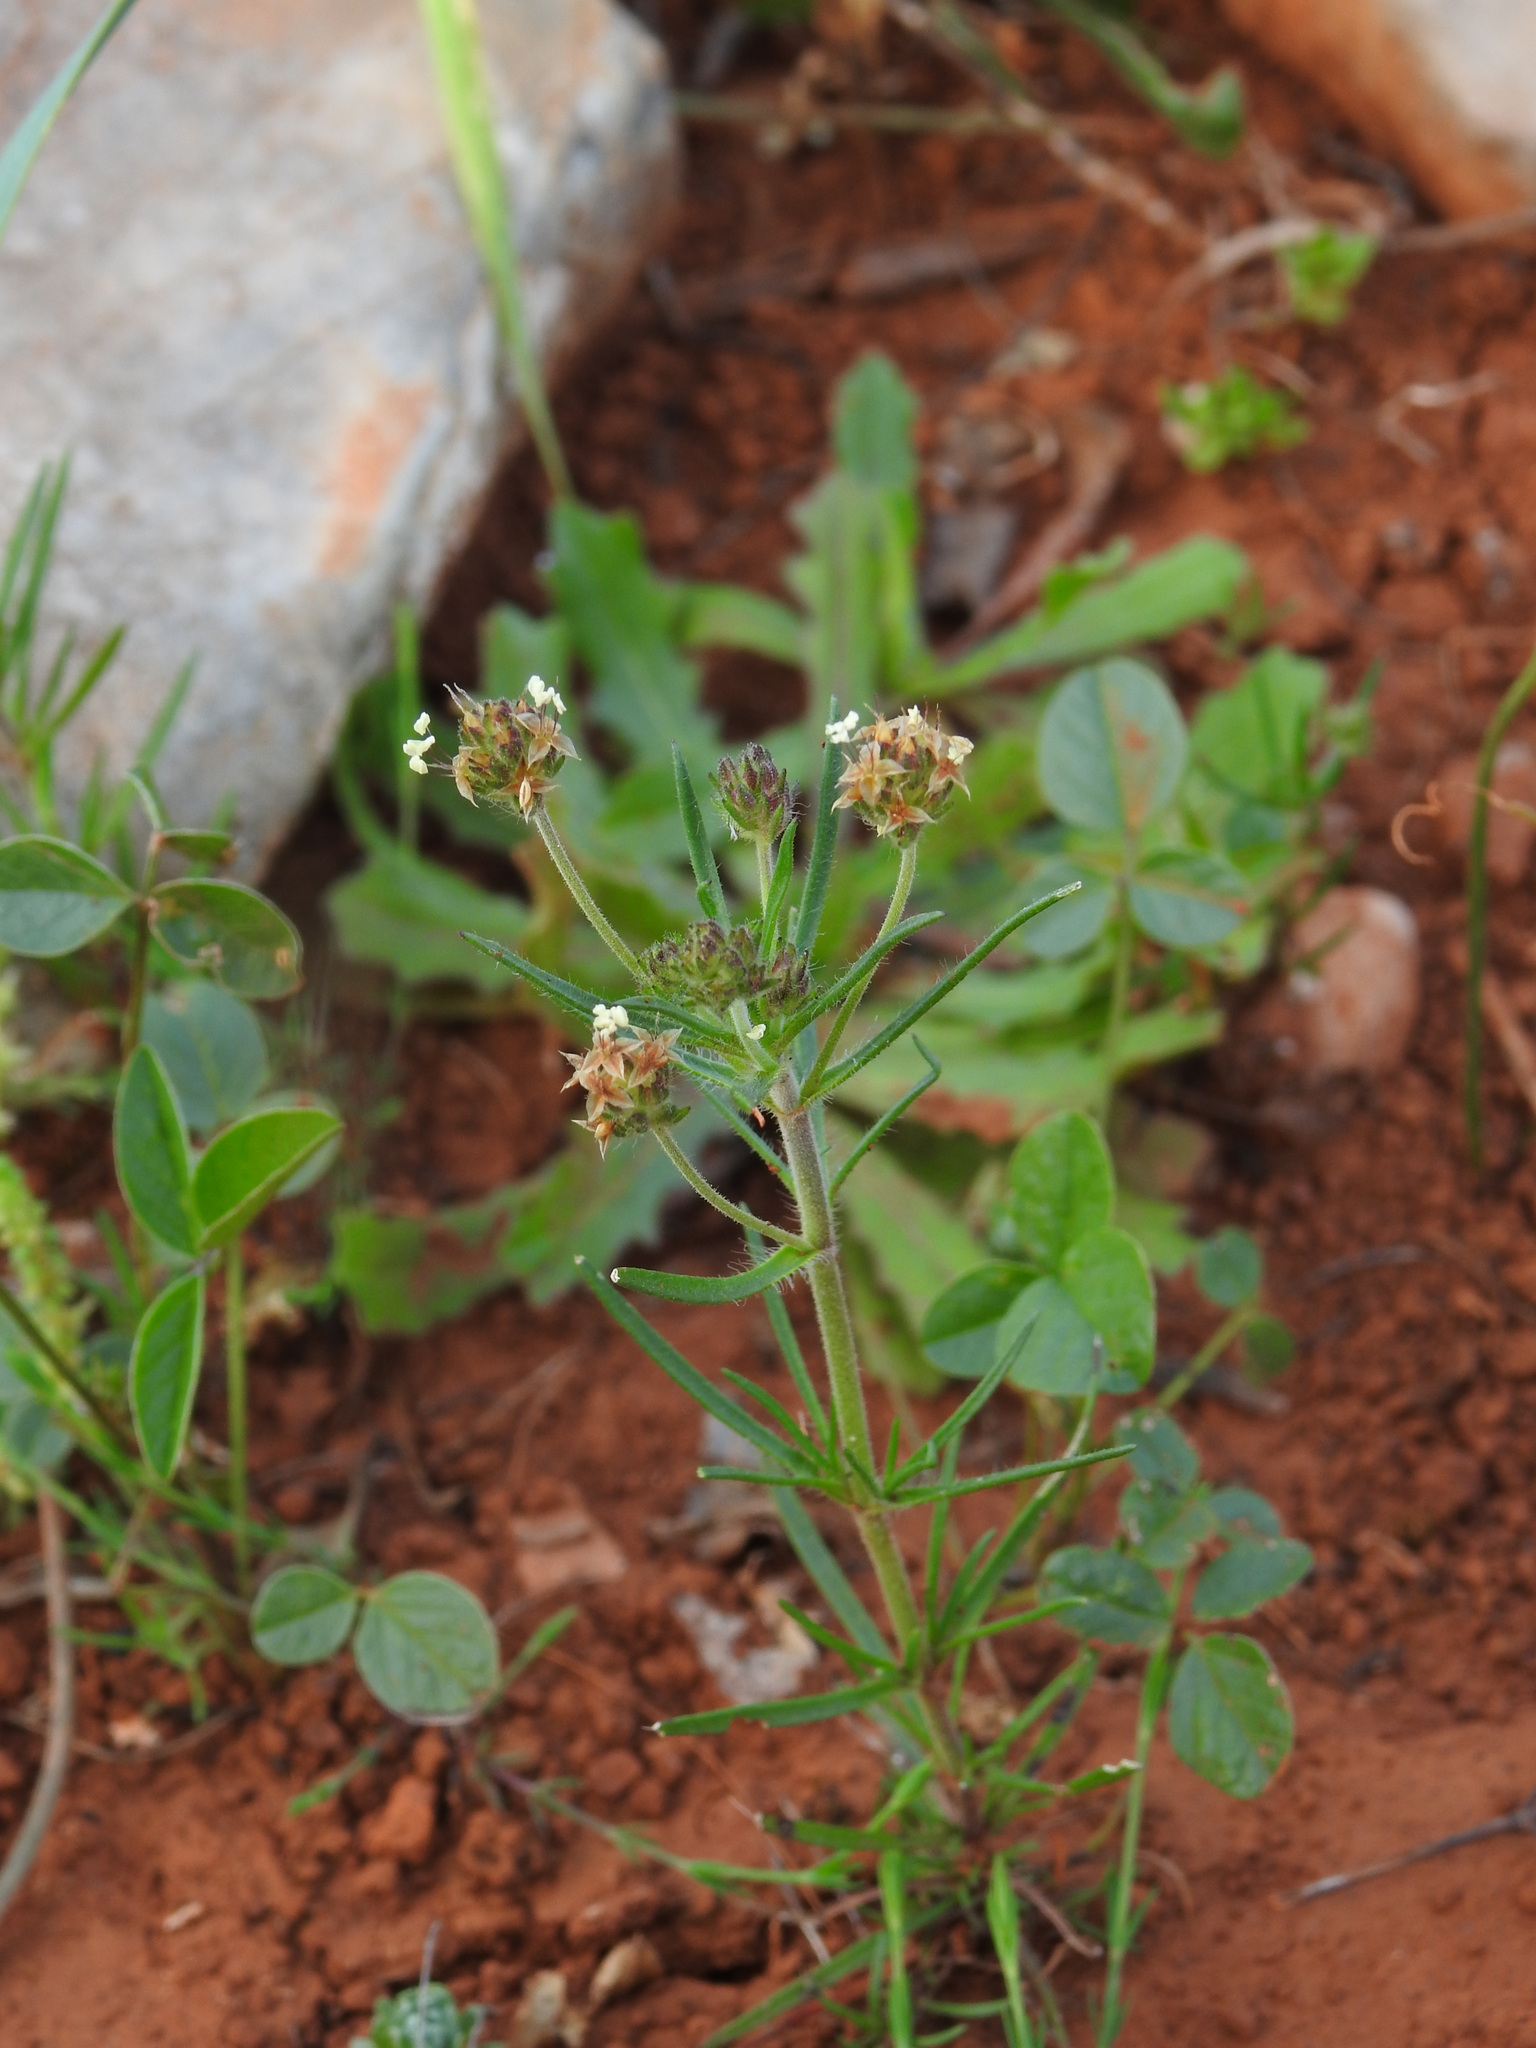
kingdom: Plantae
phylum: Tracheophyta
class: Magnoliopsida
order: Lamiales
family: Plantaginaceae
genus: Plantago
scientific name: Plantago afra
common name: Glandular plantain
